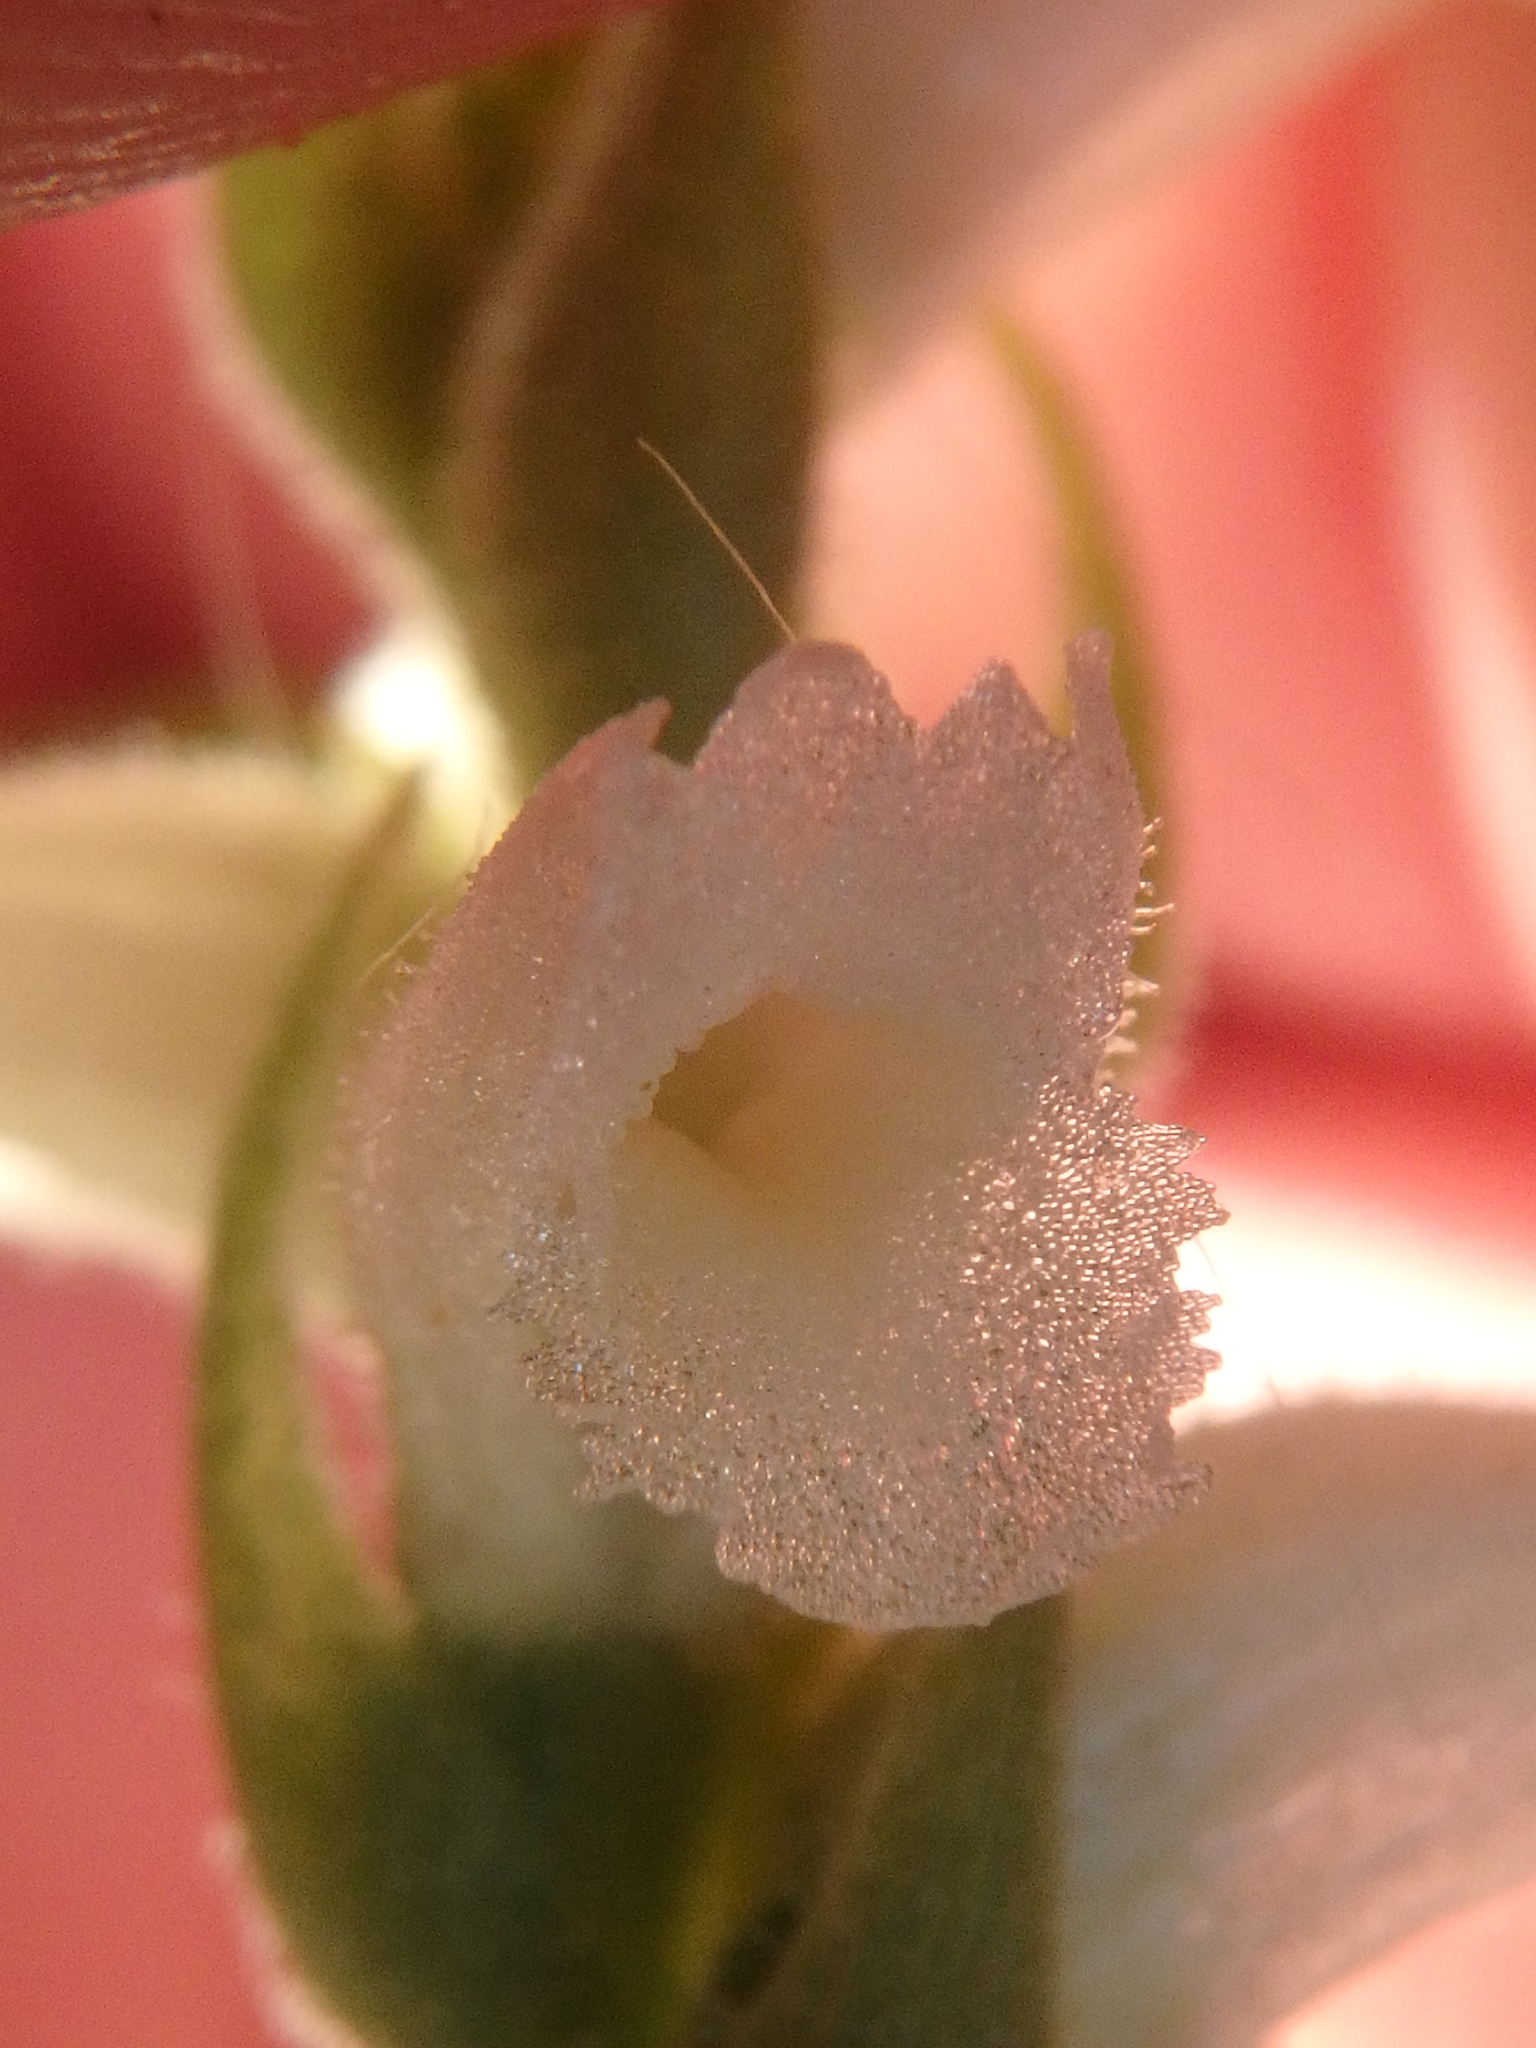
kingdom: Plantae
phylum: Tracheophyta
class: Liliopsida
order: Asparagales
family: Orchidaceae
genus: Spiranthes
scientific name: Spiranthes ochroleuca
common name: Yellow ladies'-tresses
